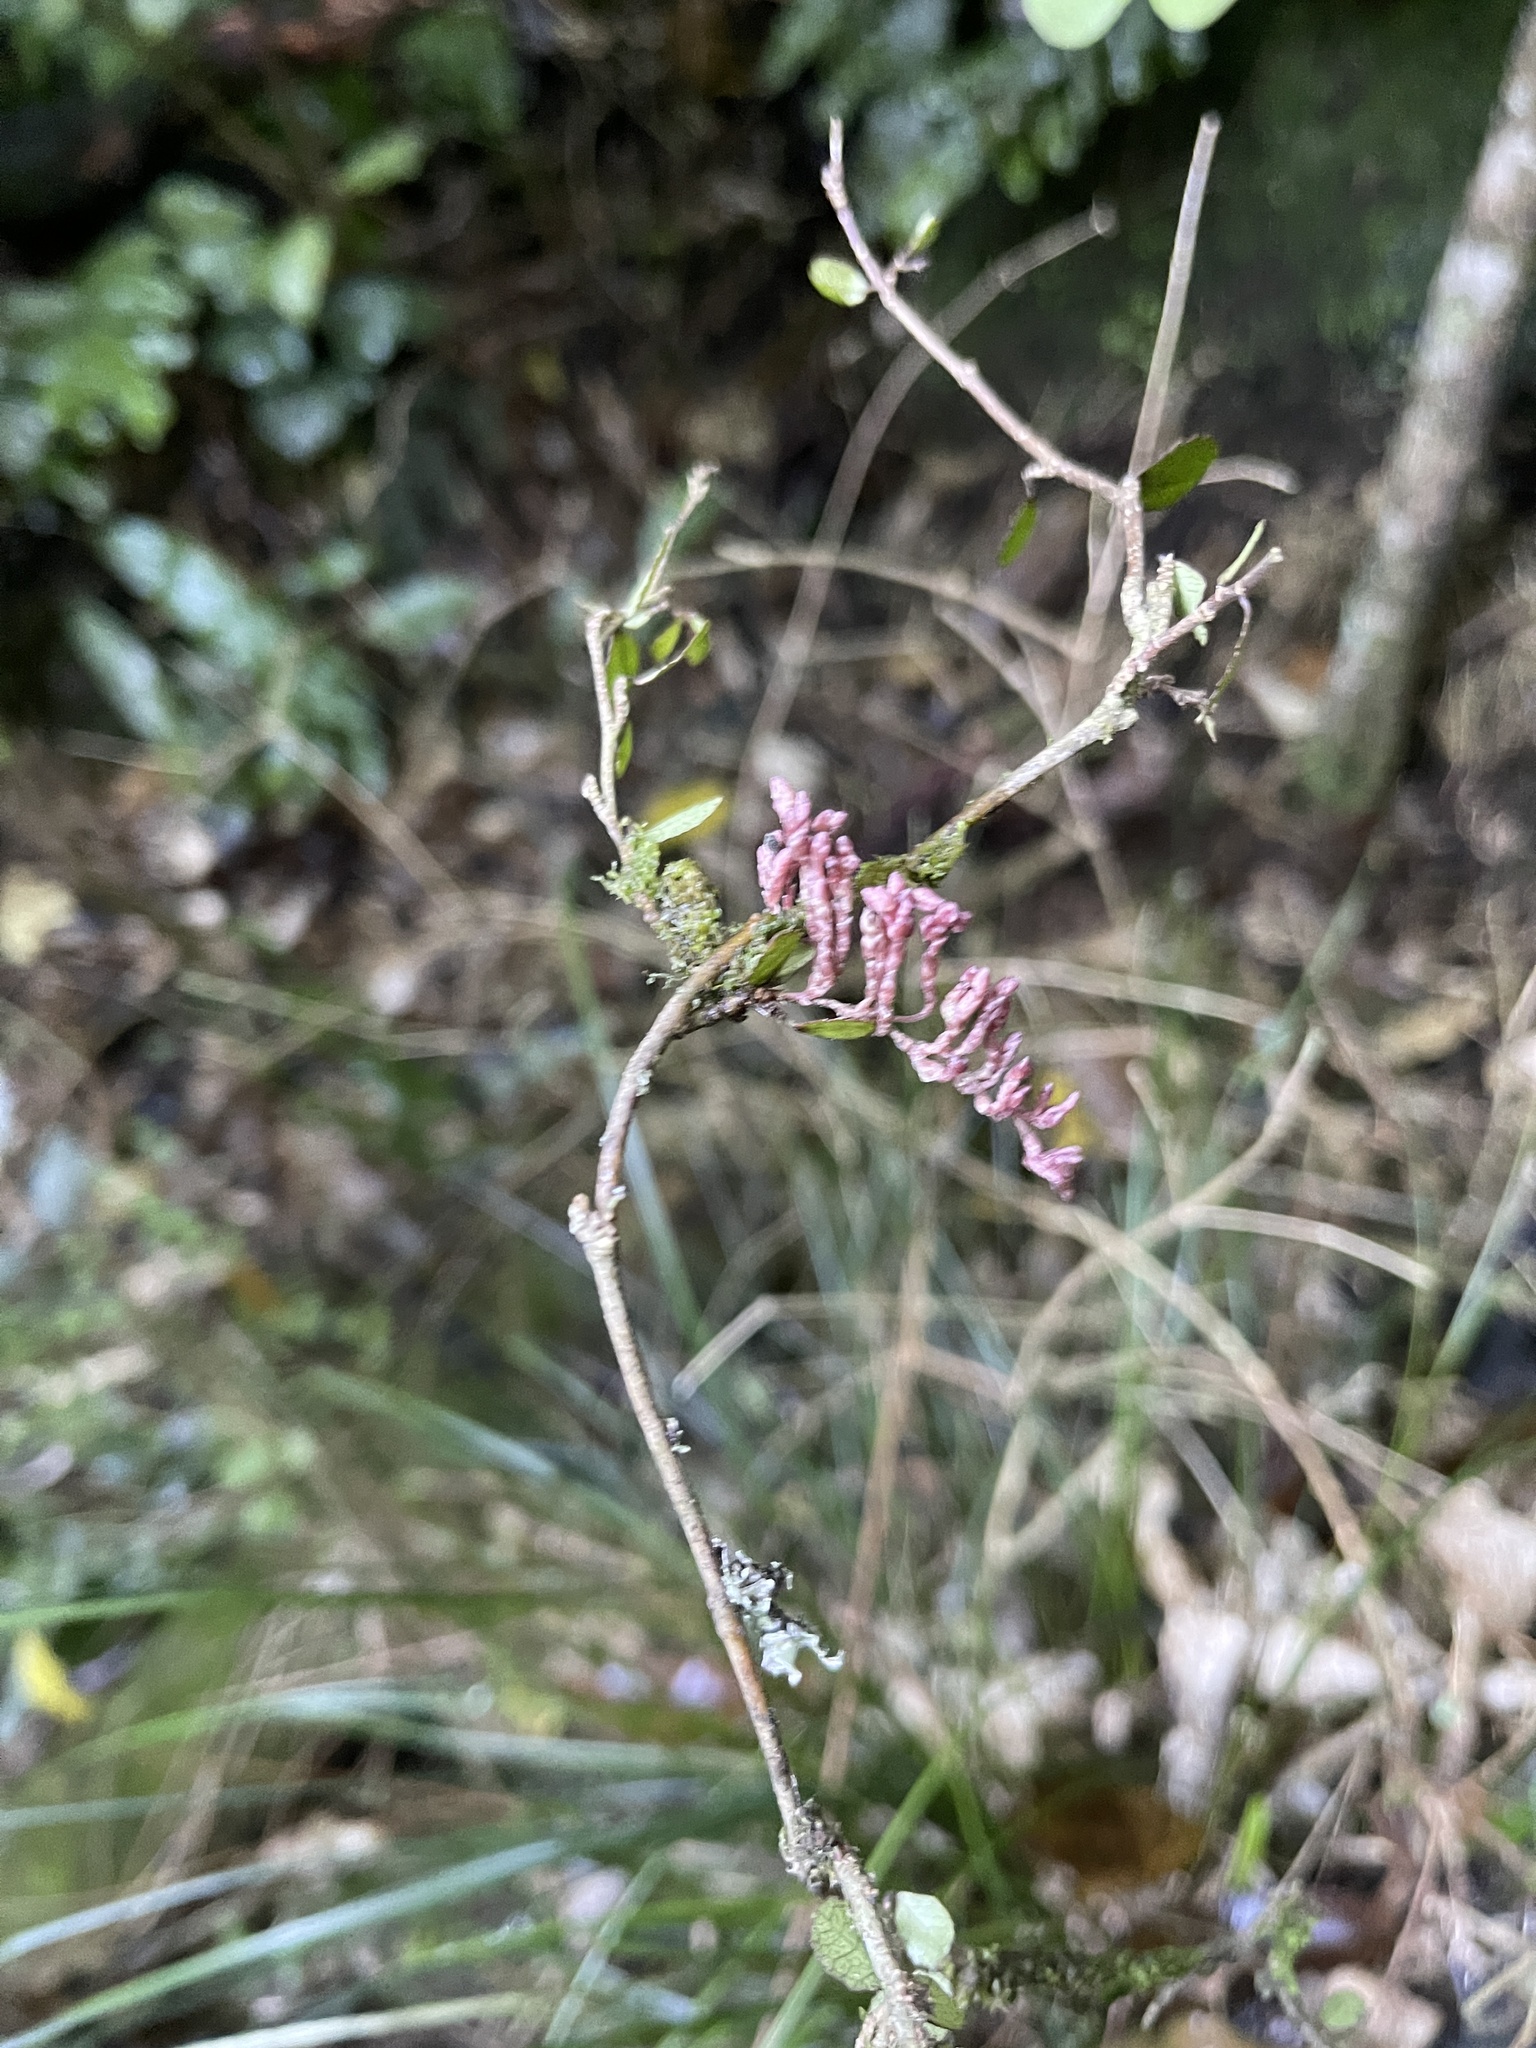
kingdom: Plantae
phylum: Tracheophyta
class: Magnoliopsida
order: Rosales
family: Moraceae
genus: Paratrophis
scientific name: Paratrophis microphylla
